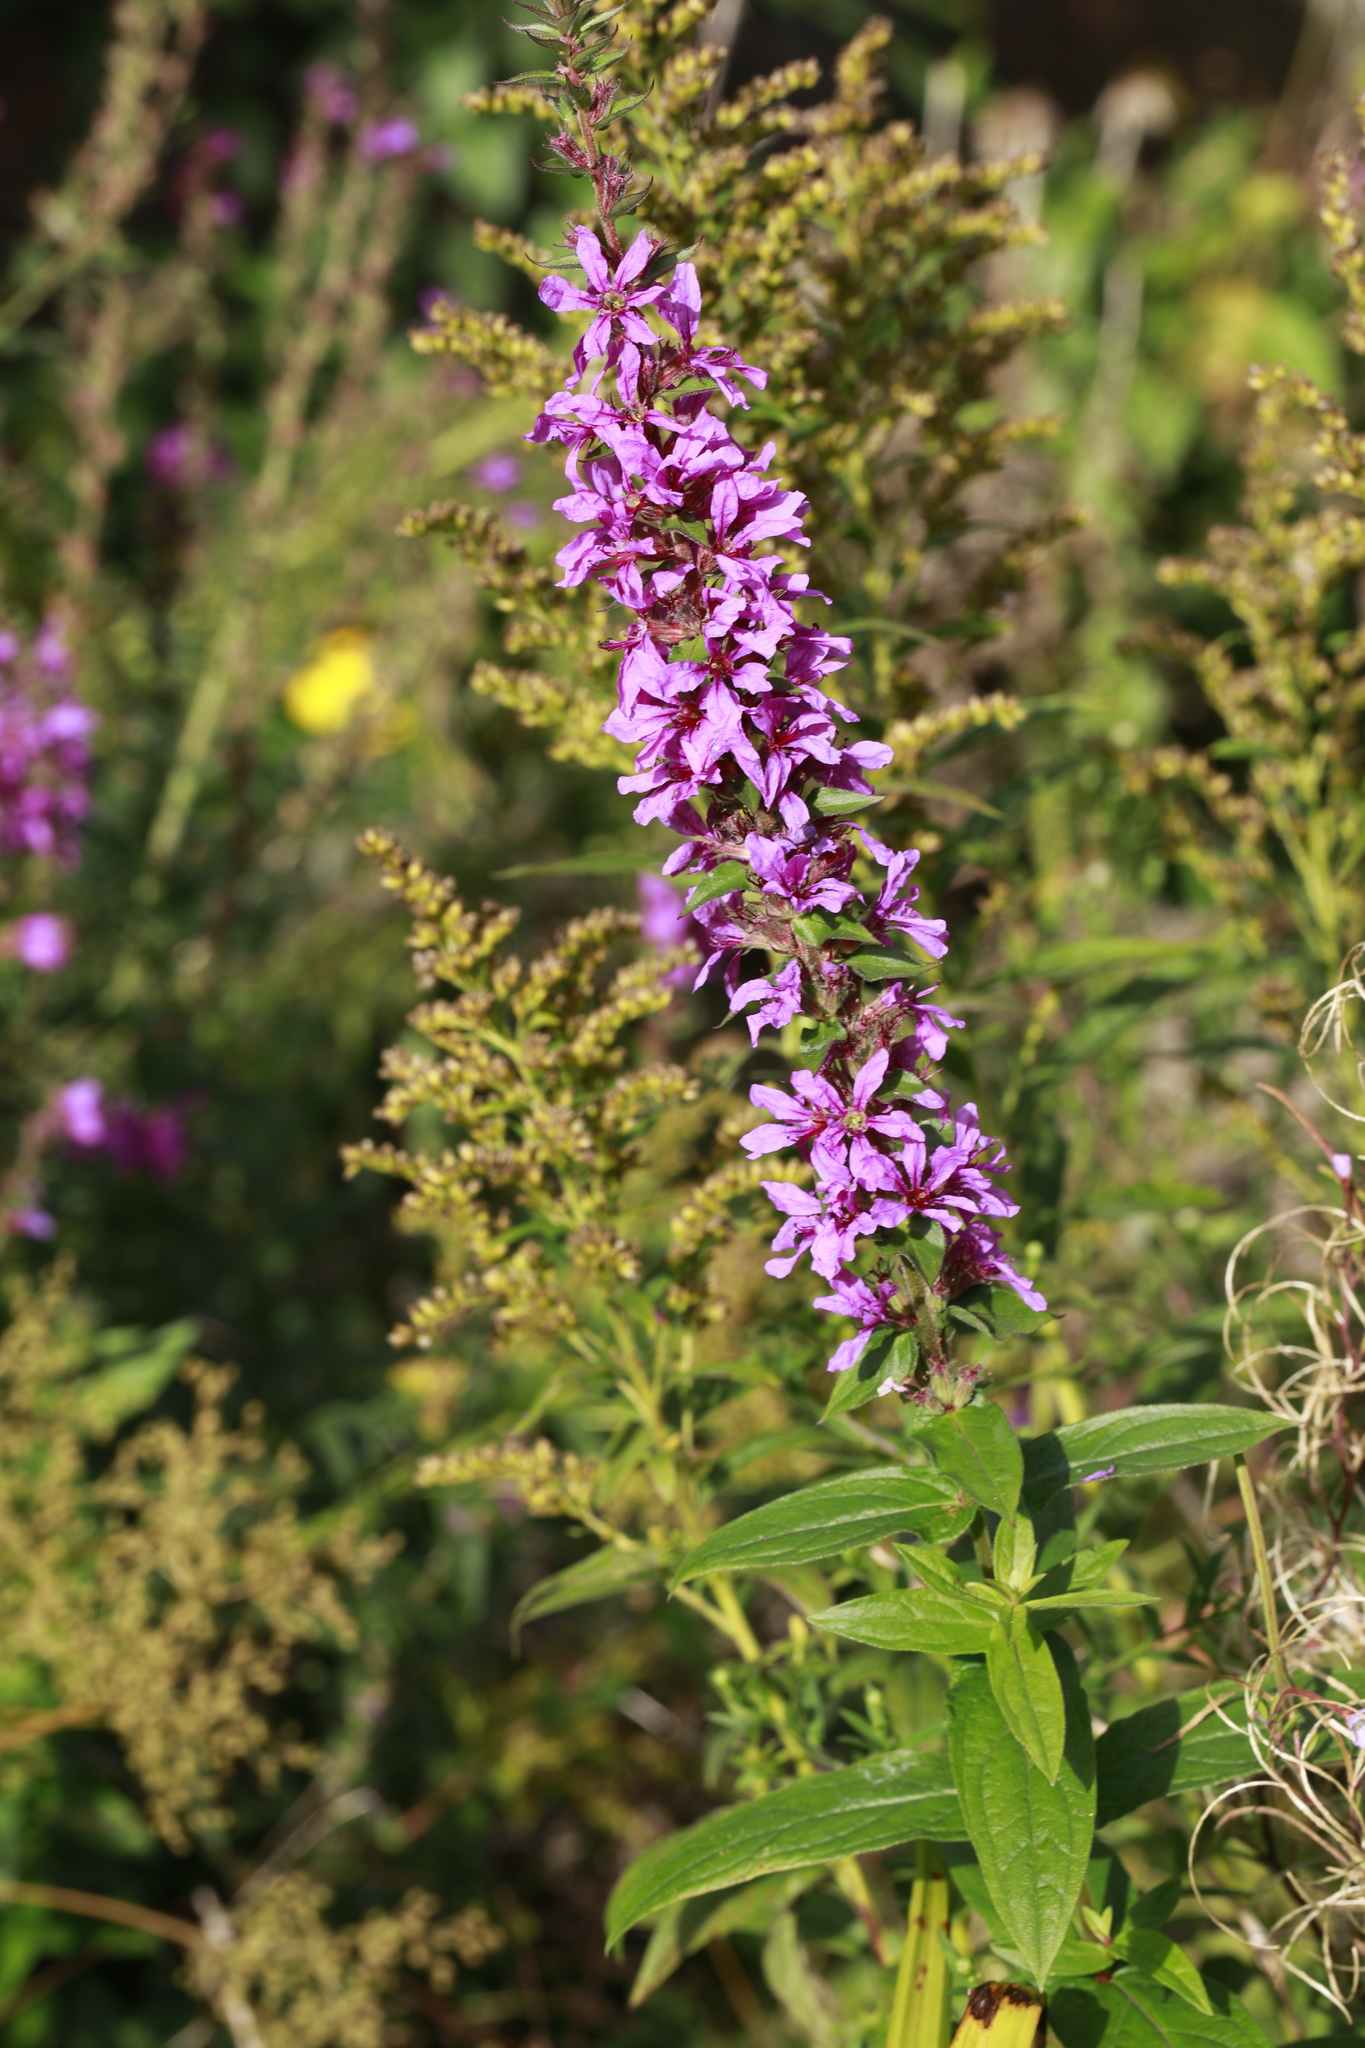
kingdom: Plantae
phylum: Tracheophyta
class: Magnoliopsida
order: Myrtales
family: Lythraceae
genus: Lythrum
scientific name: Lythrum salicaria
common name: Purple loosestrife
